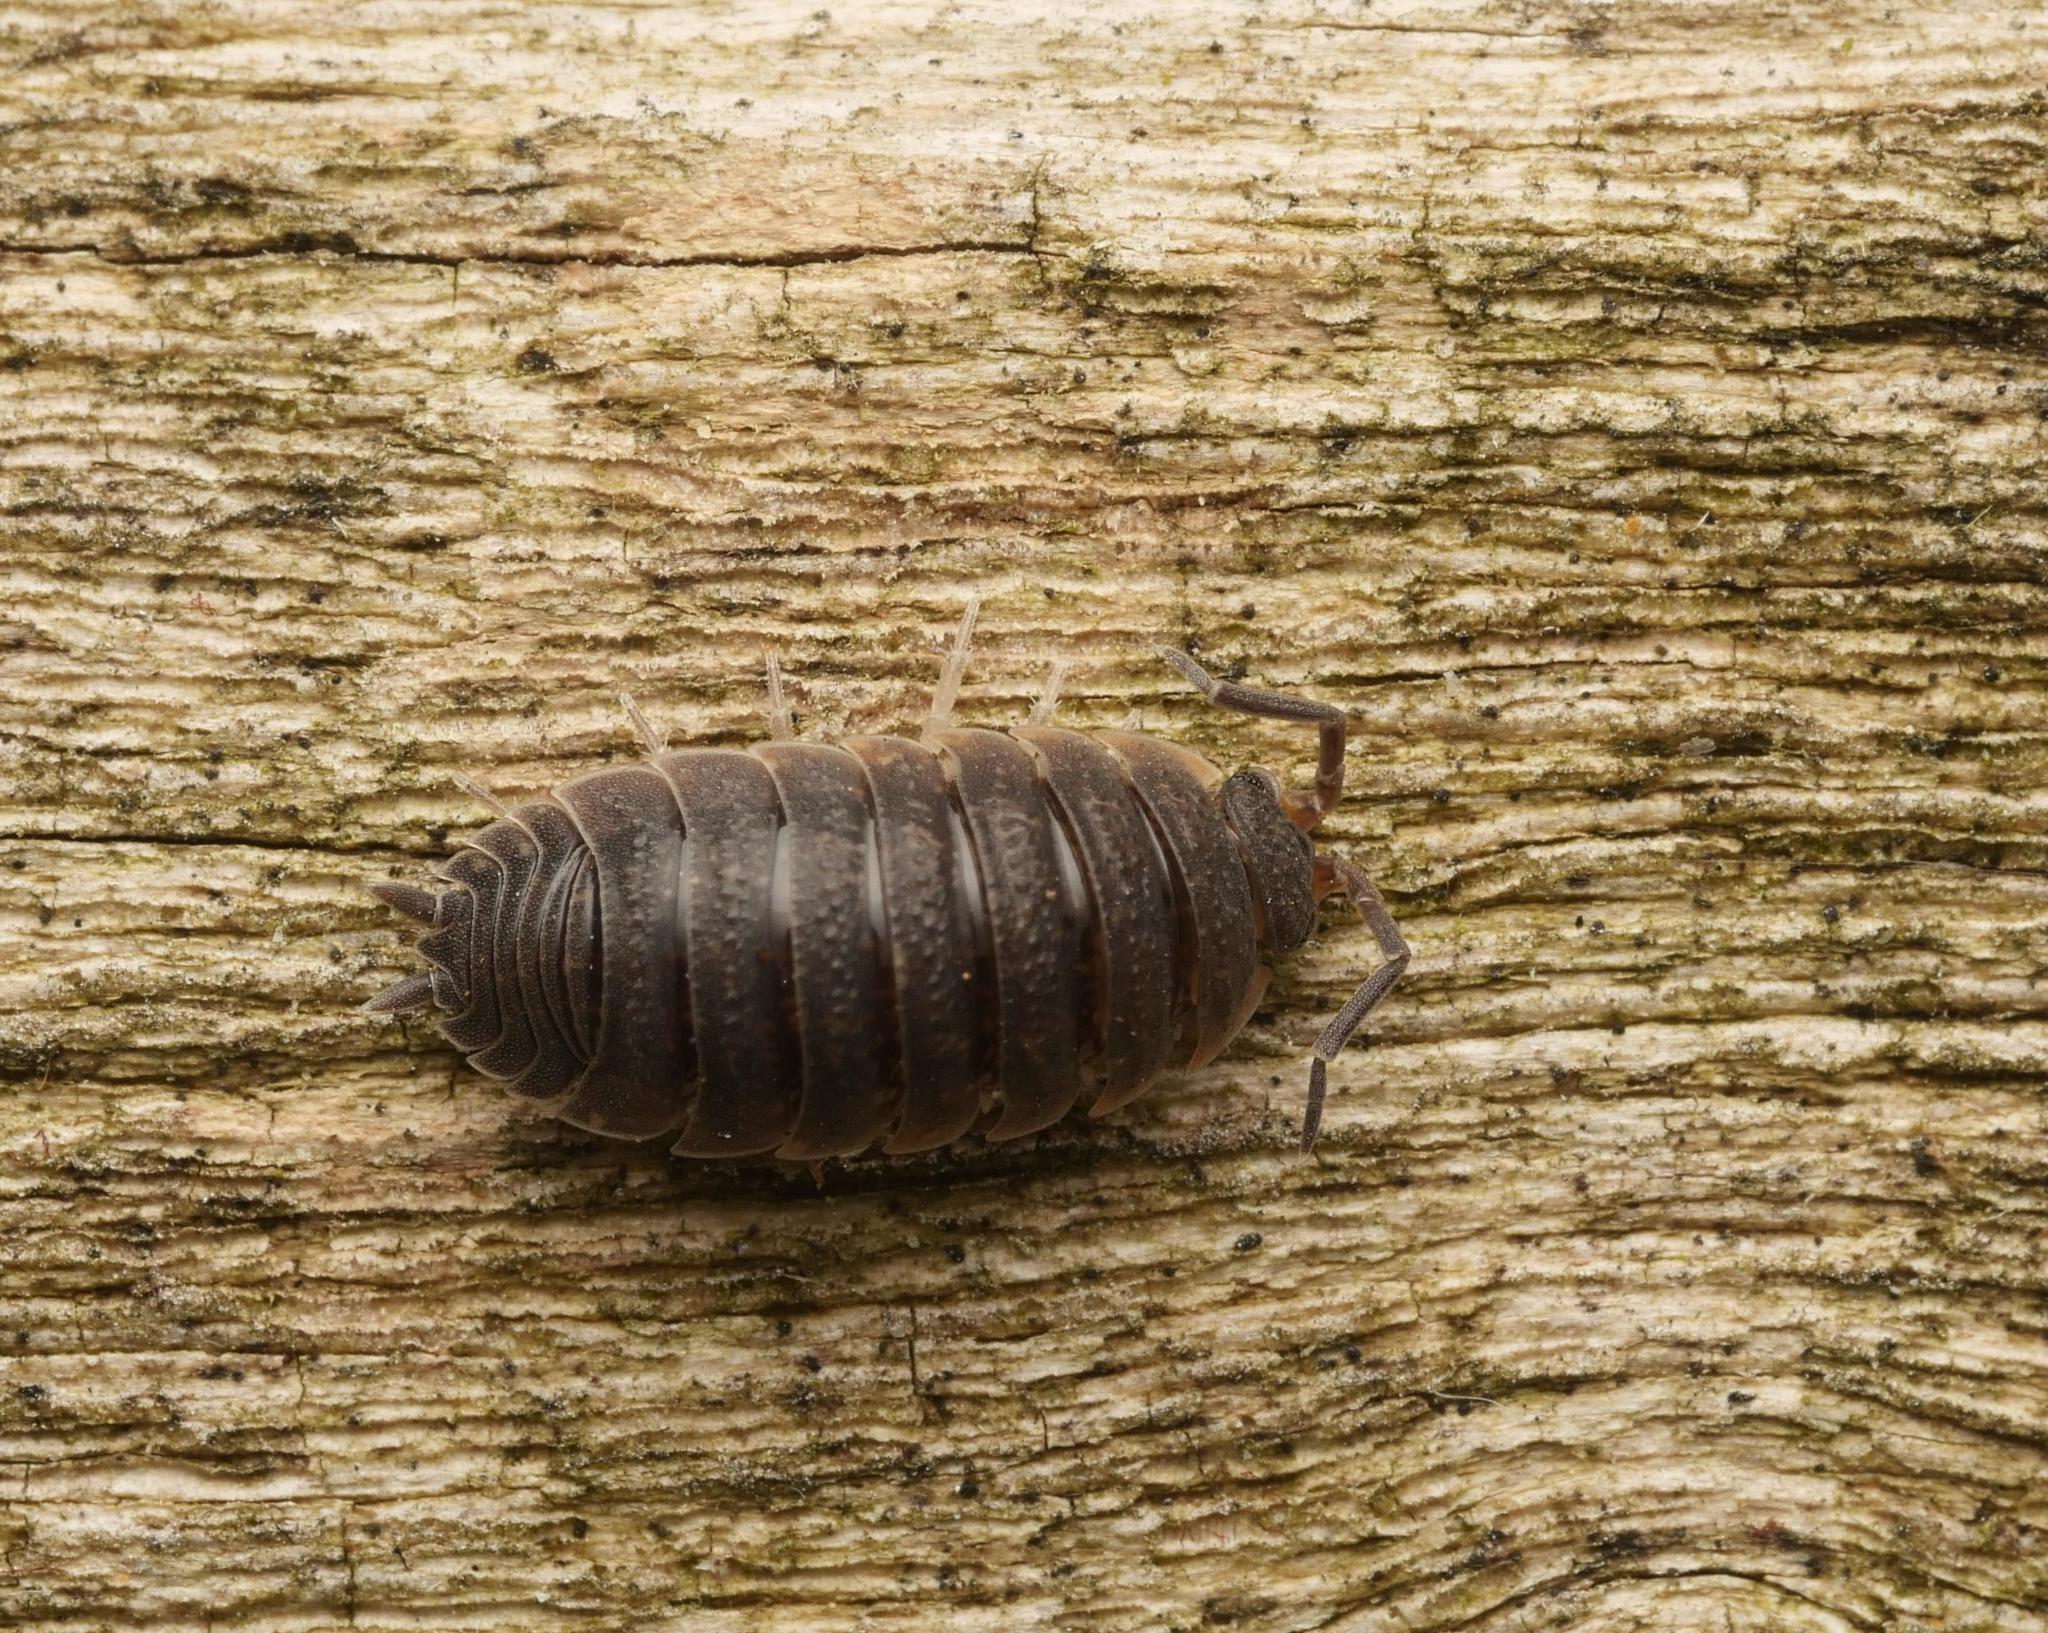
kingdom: Animalia
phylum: Arthropoda
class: Malacostraca
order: Isopoda
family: Porcellionidae
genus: Porcellio
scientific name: Porcellio scaber
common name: Common rough woodlouse
